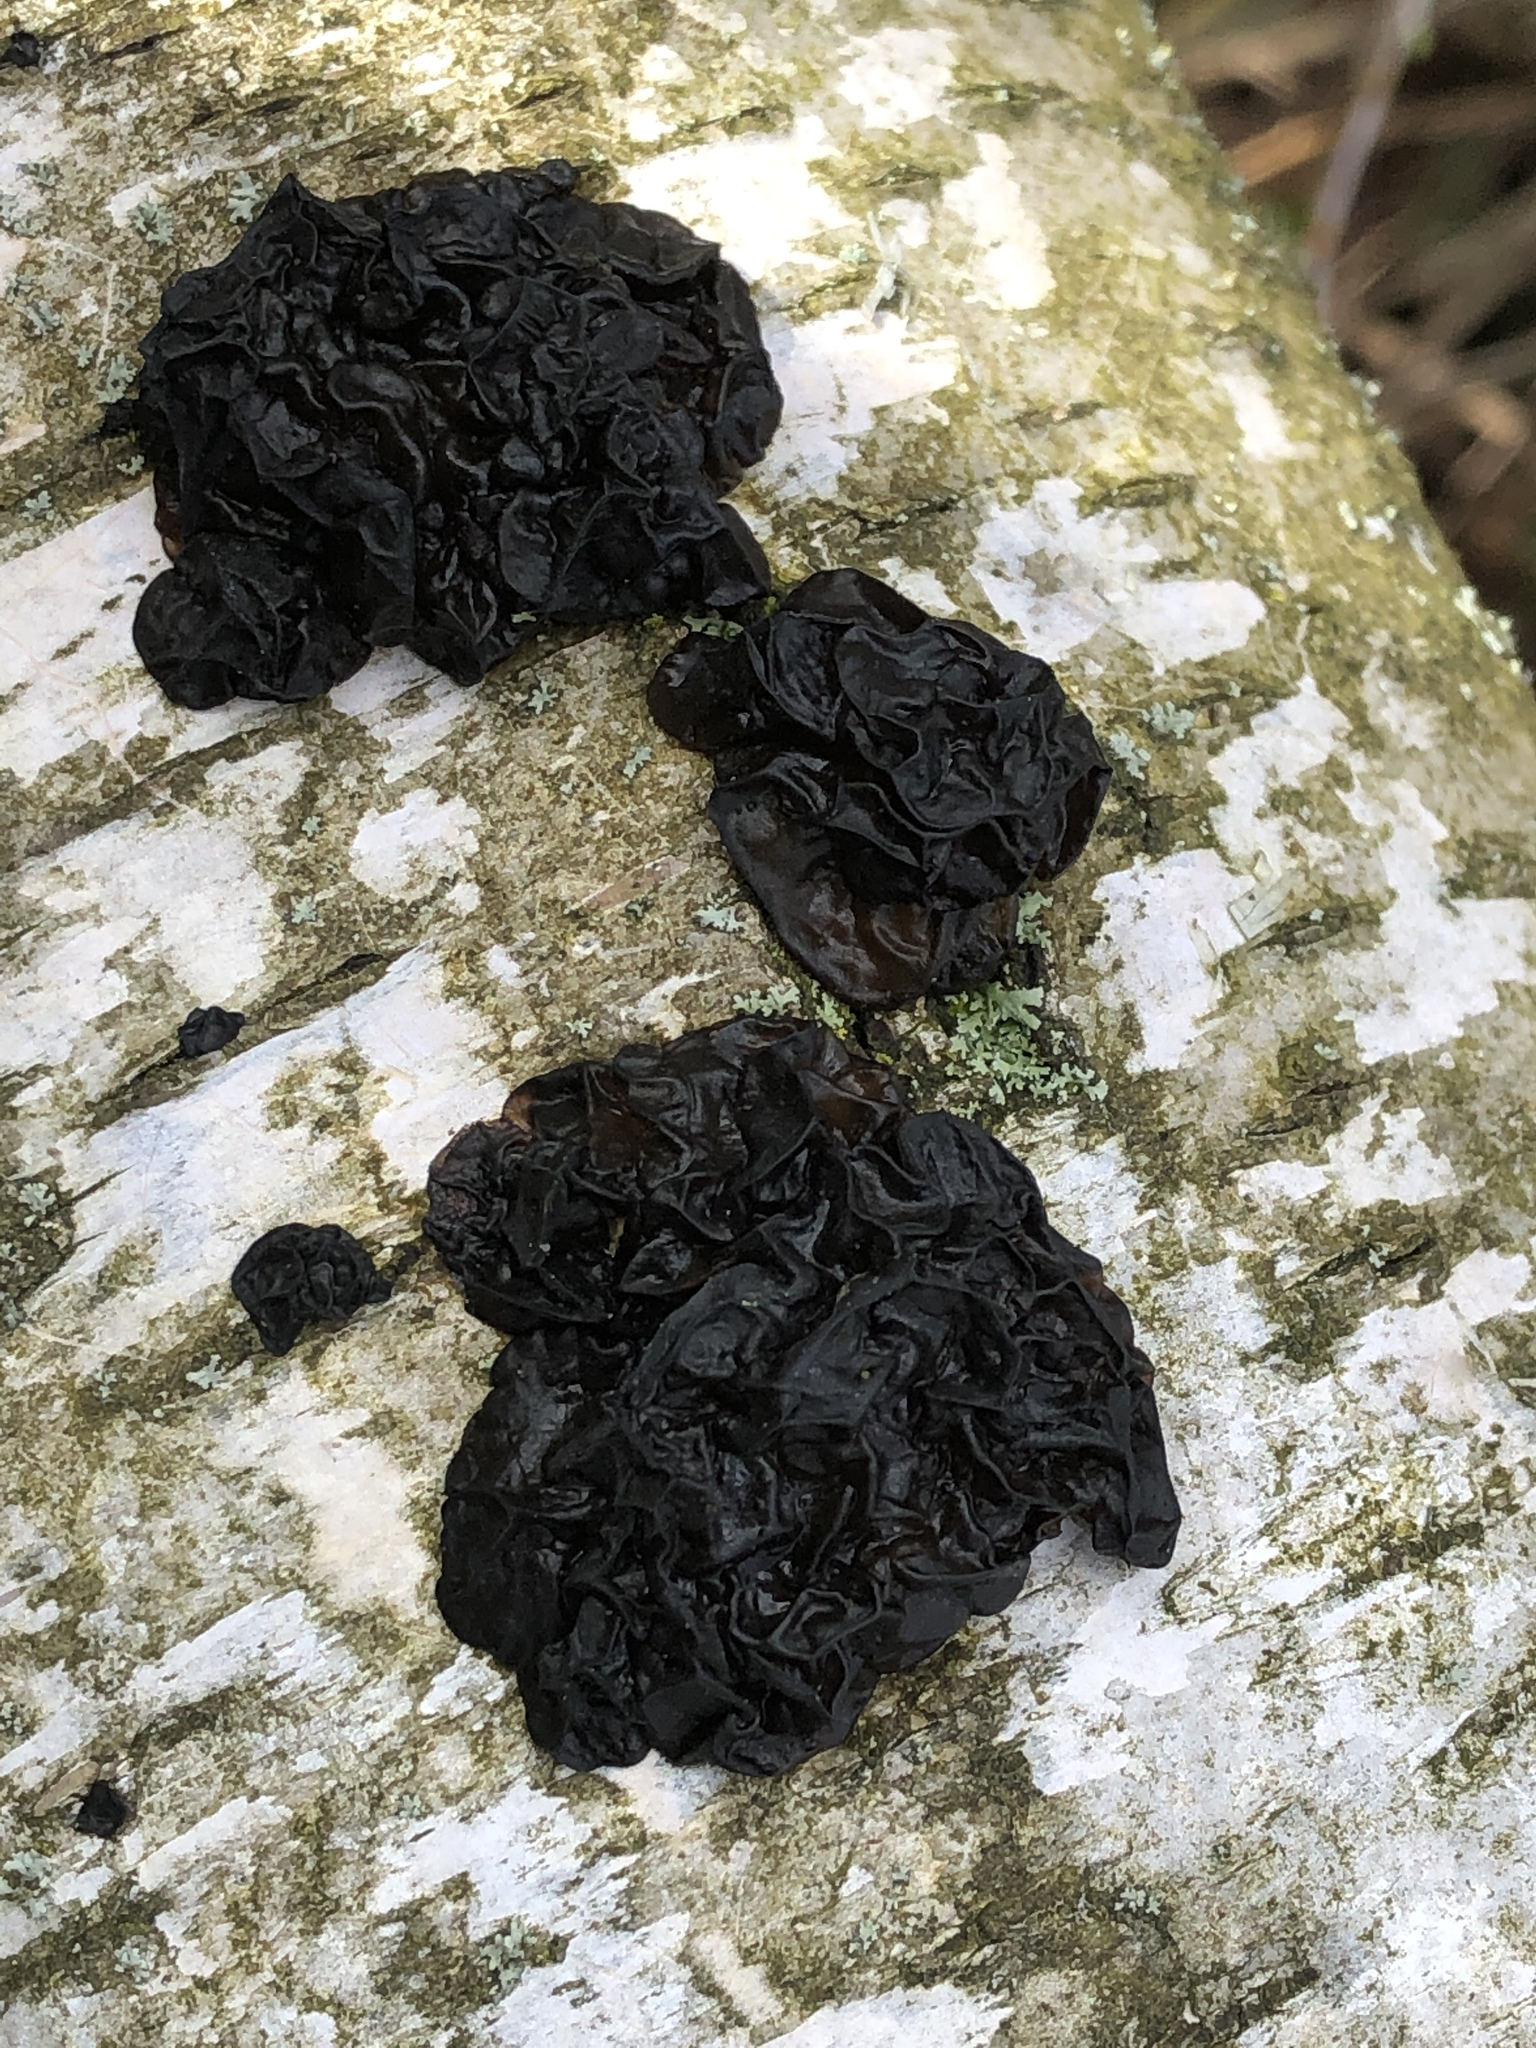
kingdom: Fungi
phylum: Basidiomycota
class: Agaricomycetes
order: Auriculariales
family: Auriculariaceae
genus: Exidia
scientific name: Exidia glandulosa
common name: Witches' butter
